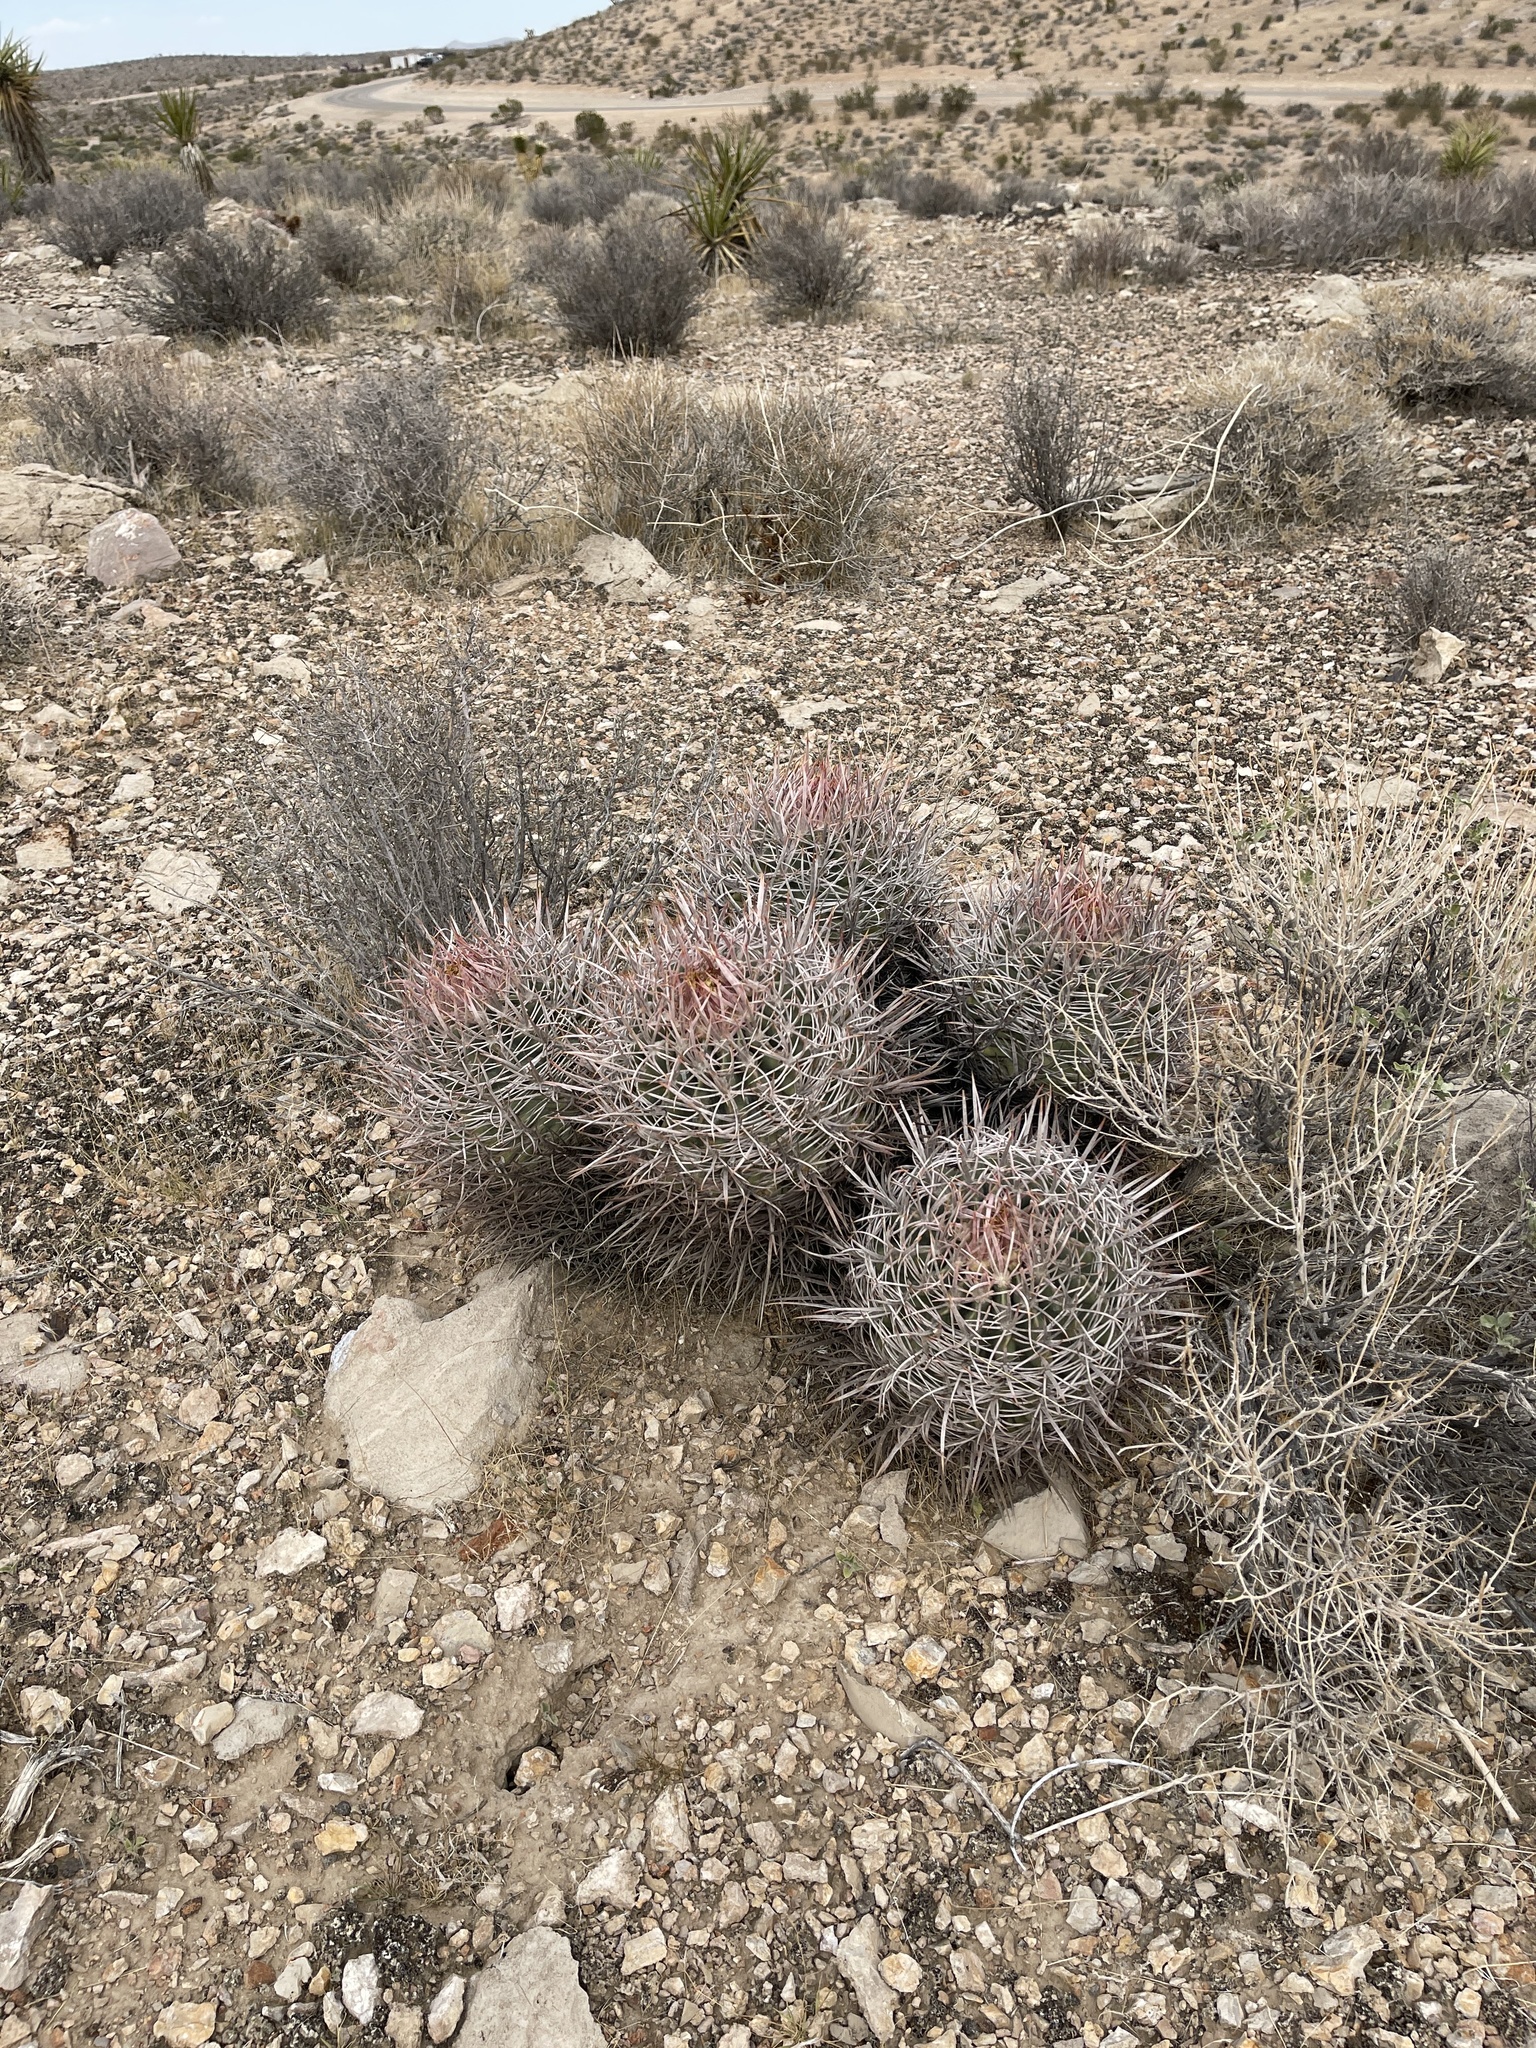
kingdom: Plantae
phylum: Tracheophyta
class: Magnoliopsida
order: Caryophyllales
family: Cactaceae
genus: Echinocactus
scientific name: Echinocactus polycephalus
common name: Cottontop cactus
